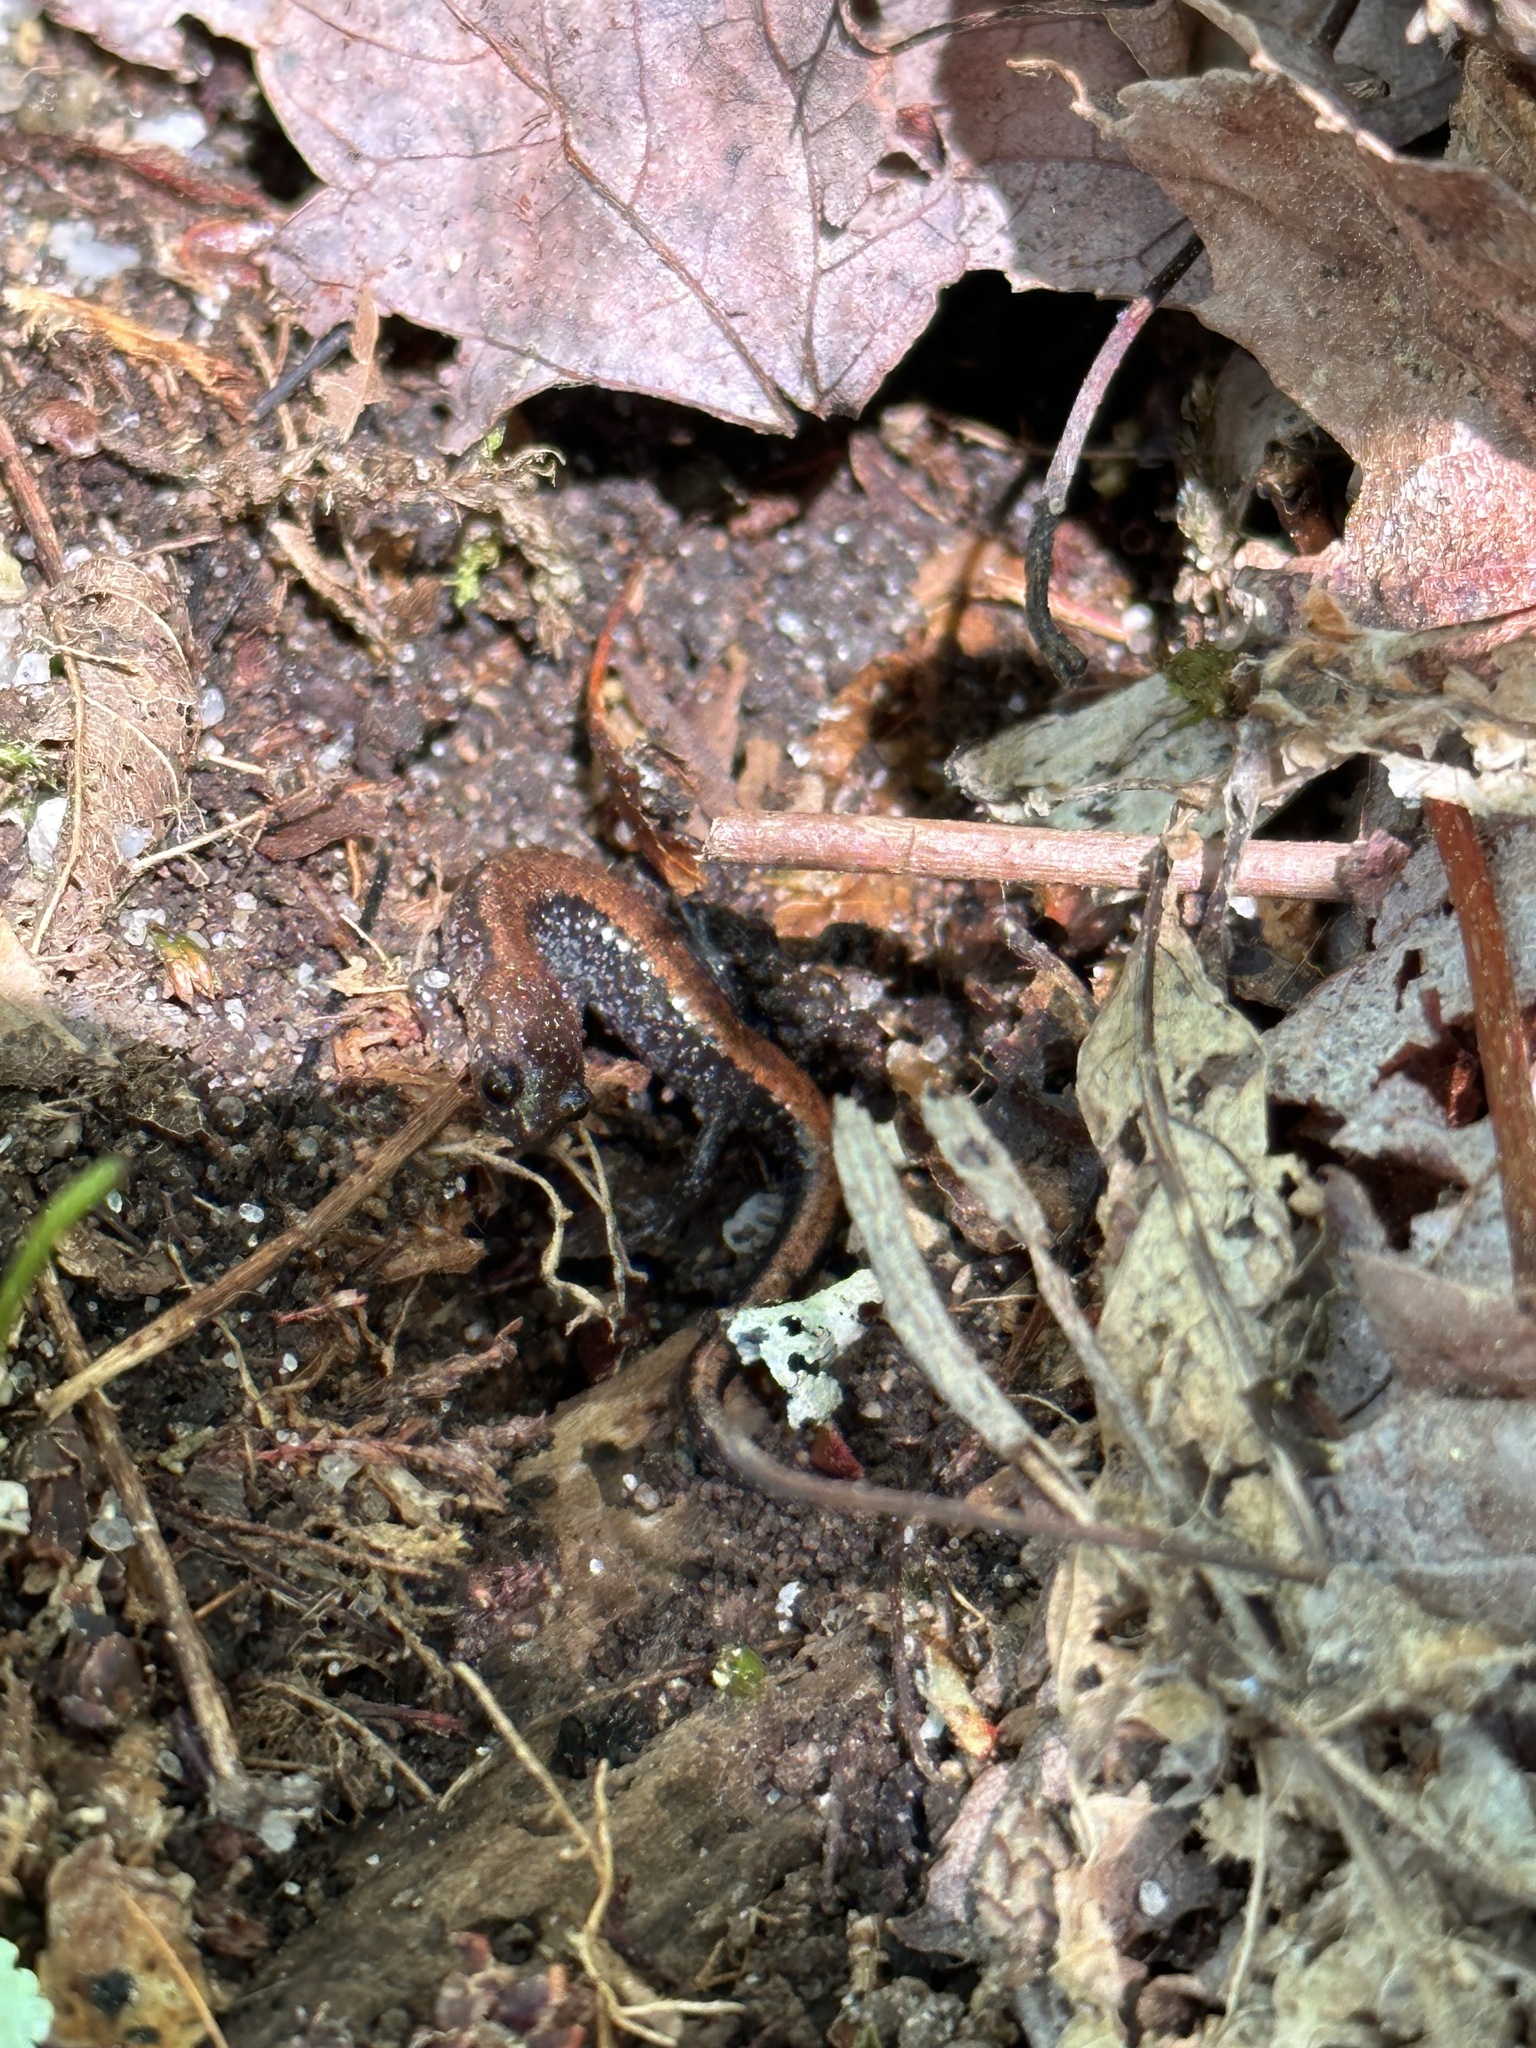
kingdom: Animalia
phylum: Chordata
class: Amphibia
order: Caudata
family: Plethodontidae
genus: Plethodon
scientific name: Plethodon cinereus
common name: Redback salamander
